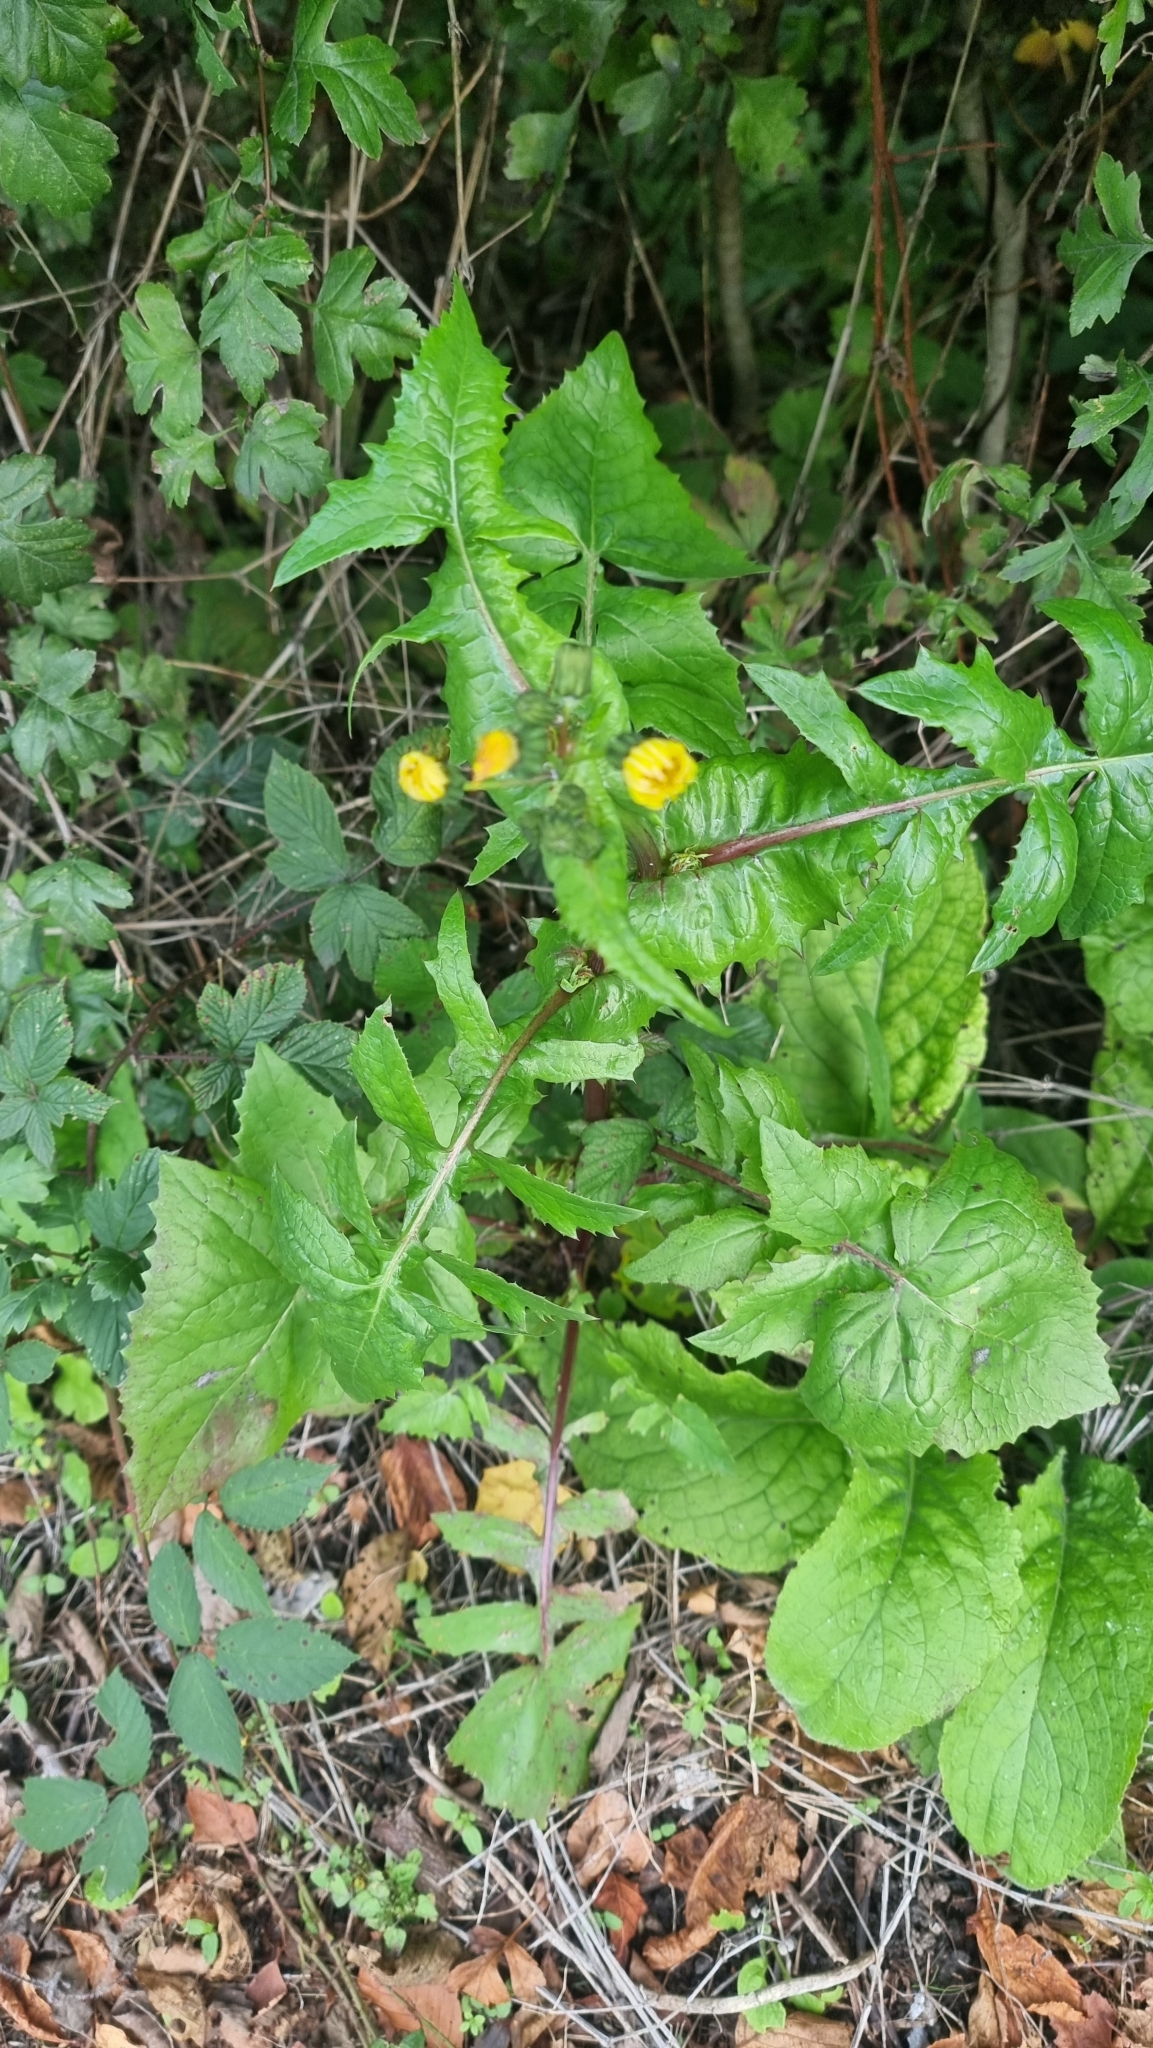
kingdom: Plantae
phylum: Tracheophyta
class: Magnoliopsida
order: Asterales
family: Asteraceae
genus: Sonchus
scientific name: Sonchus oleraceus
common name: Common sowthistle
